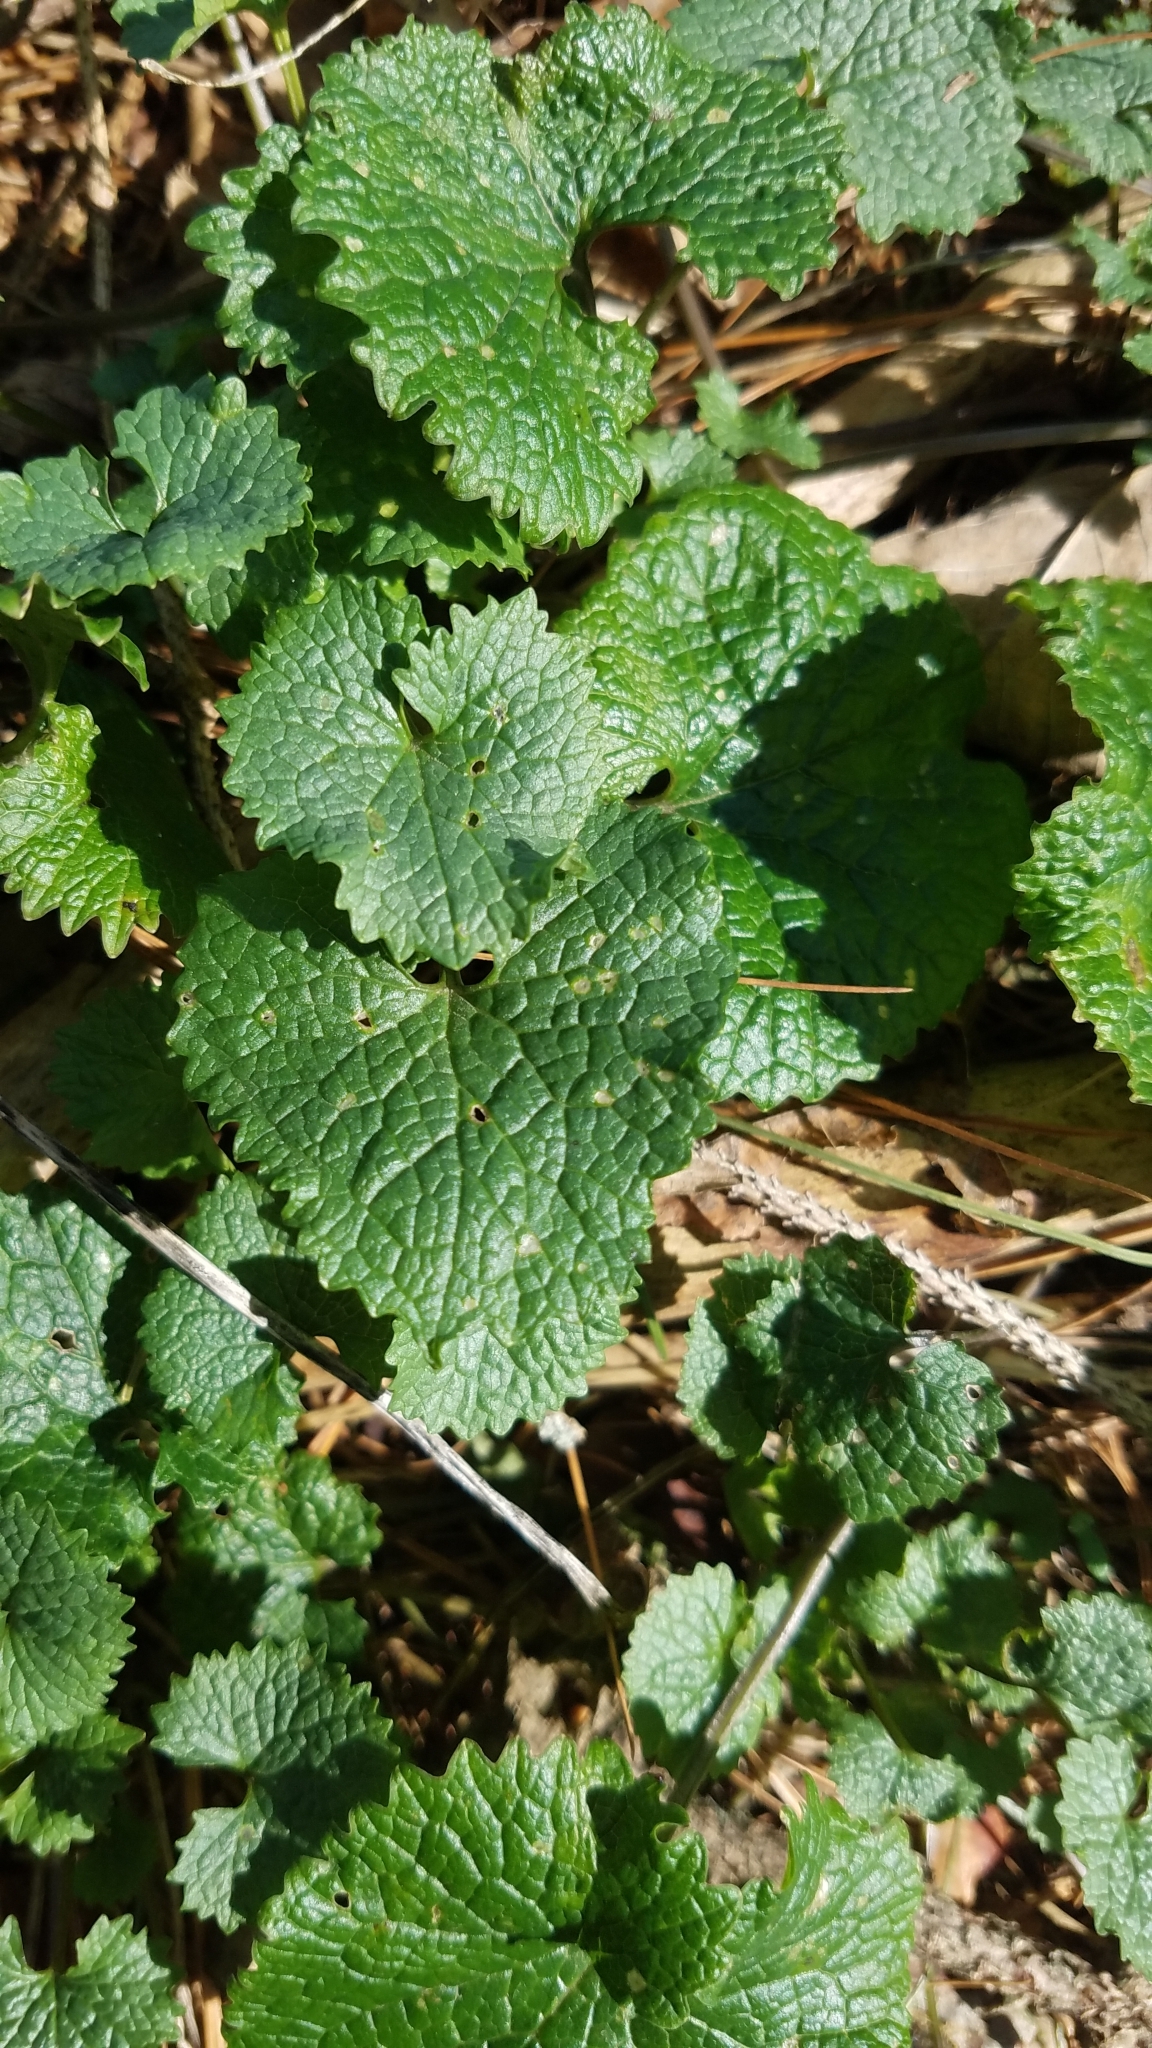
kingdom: Plantae
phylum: Tracheophyta
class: Magnoliopsida
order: Brassicales
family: Brassicaceae
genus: Alliaria
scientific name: Alliaria petiolata
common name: Garlic mustard
